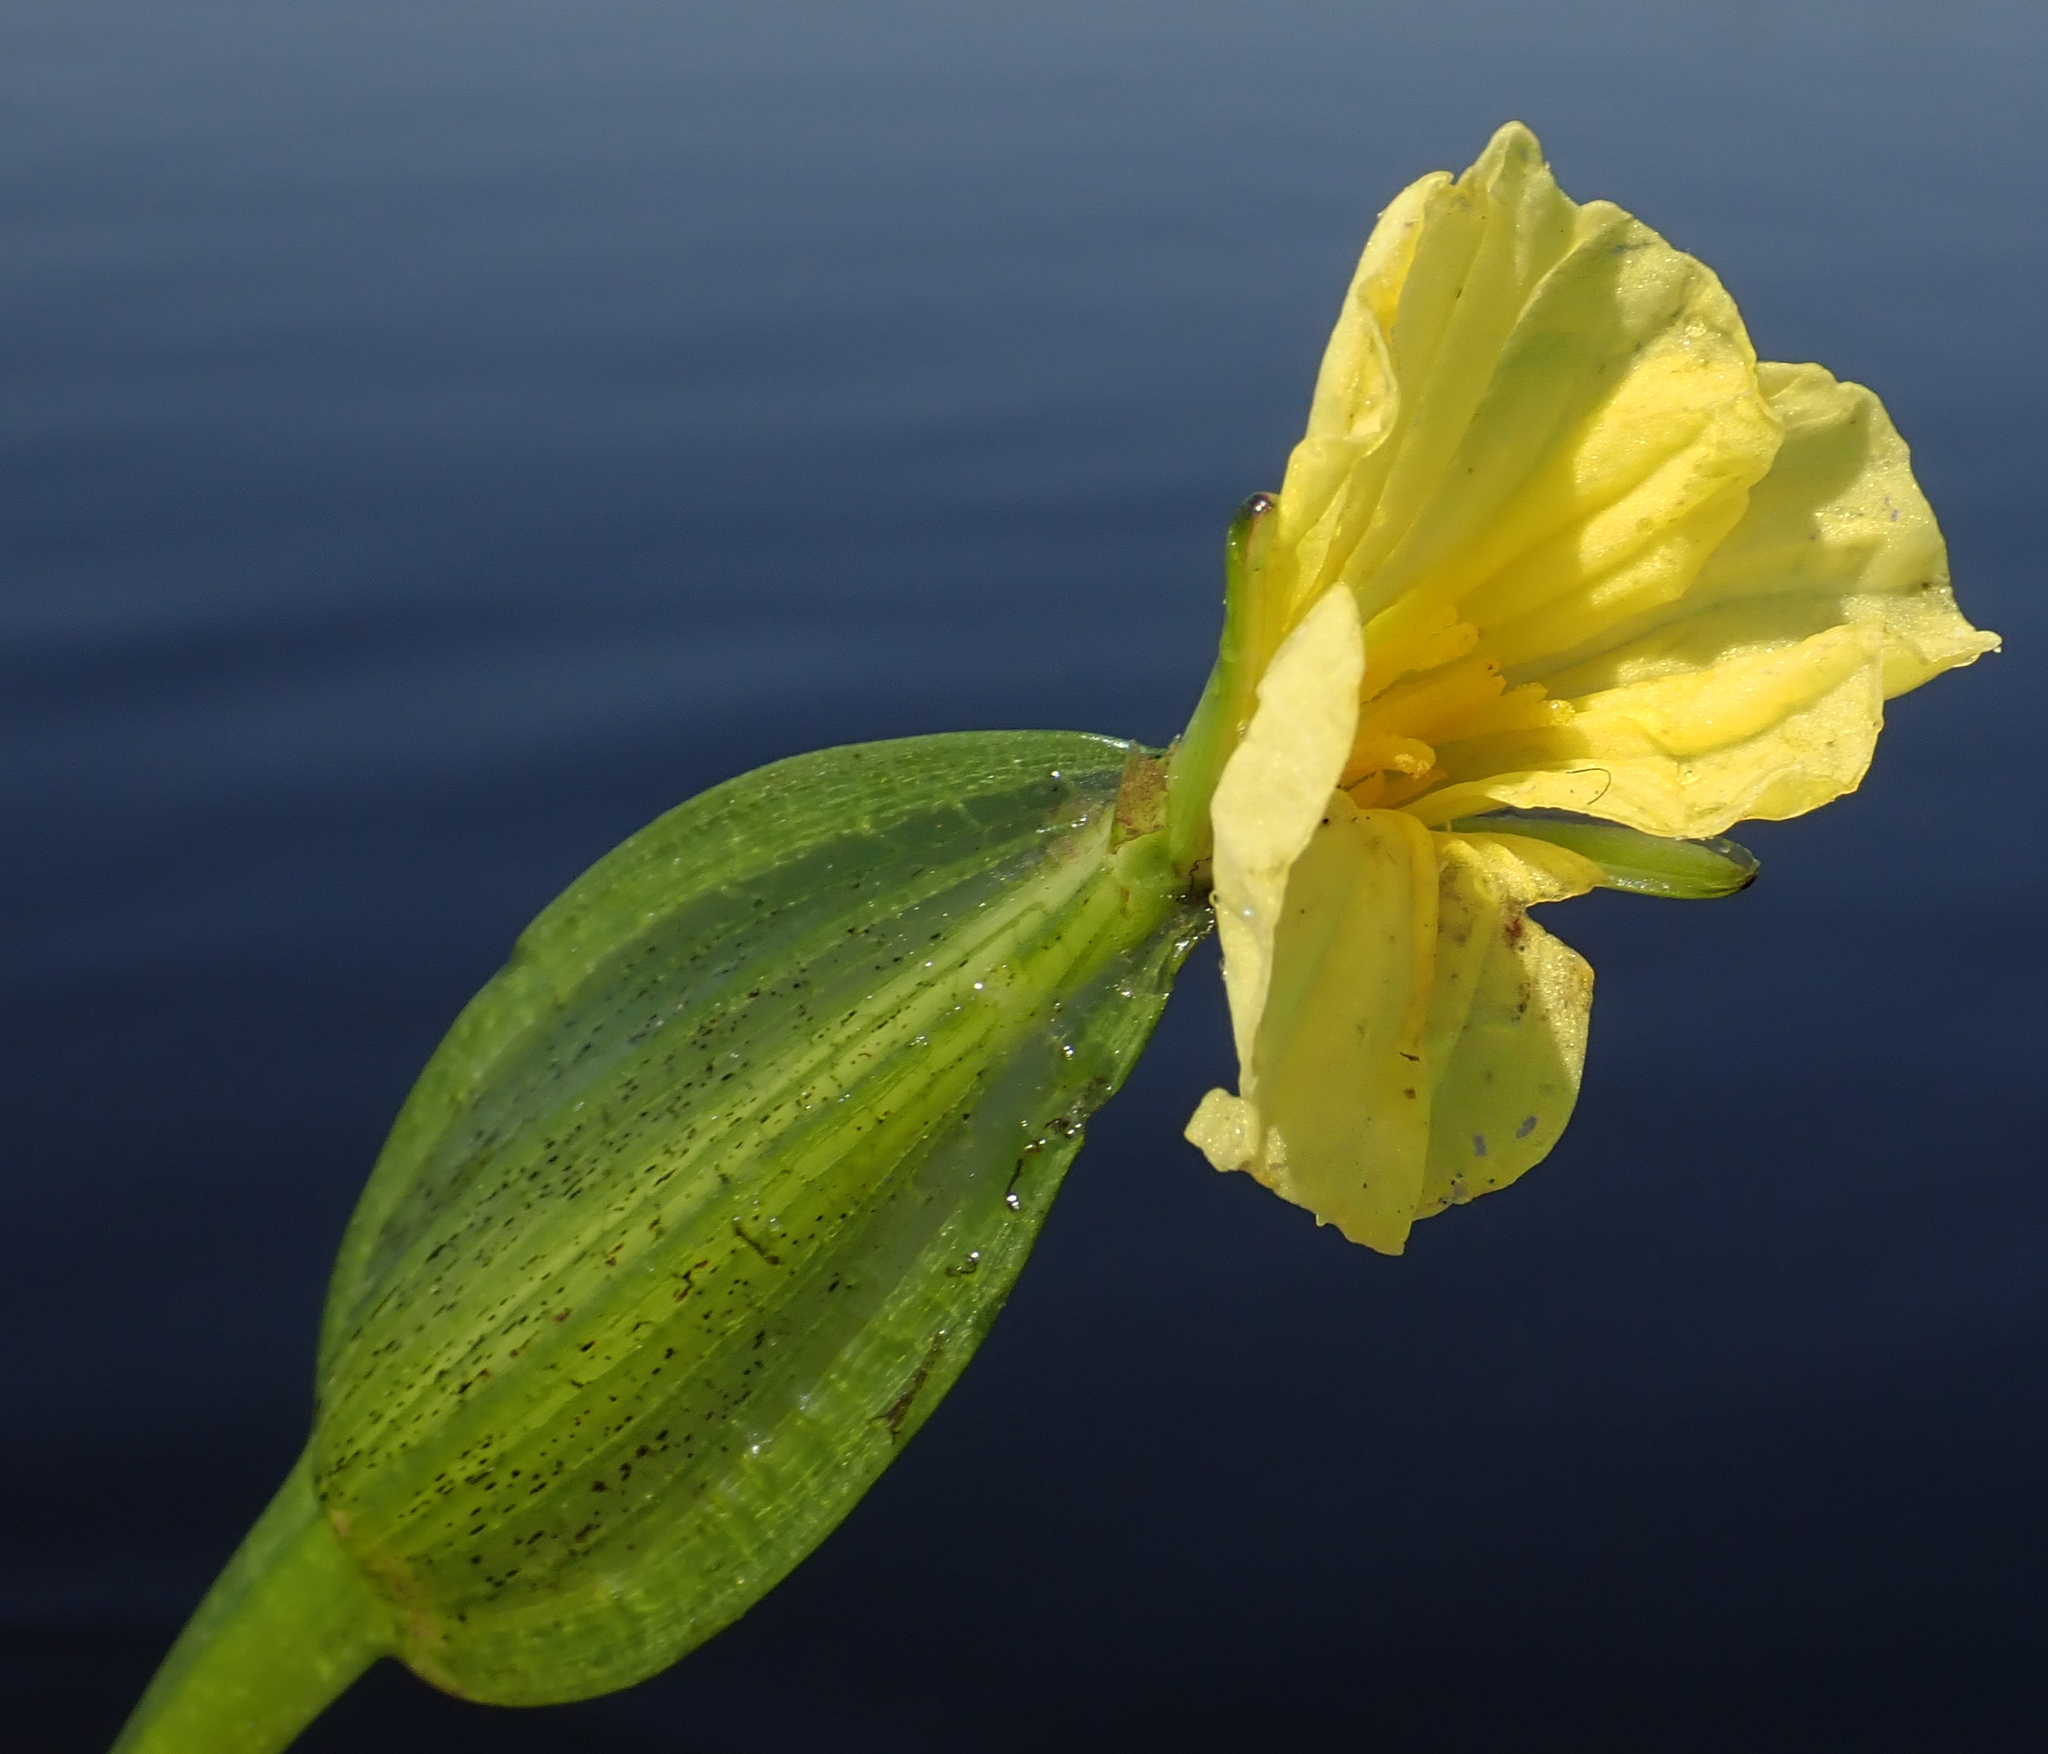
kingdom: Plantae
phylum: Tracheophyta
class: Liliopsida
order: Alismatales
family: Hydrocharitaceae
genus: Ottelia
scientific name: Ottelia ulvifolia
